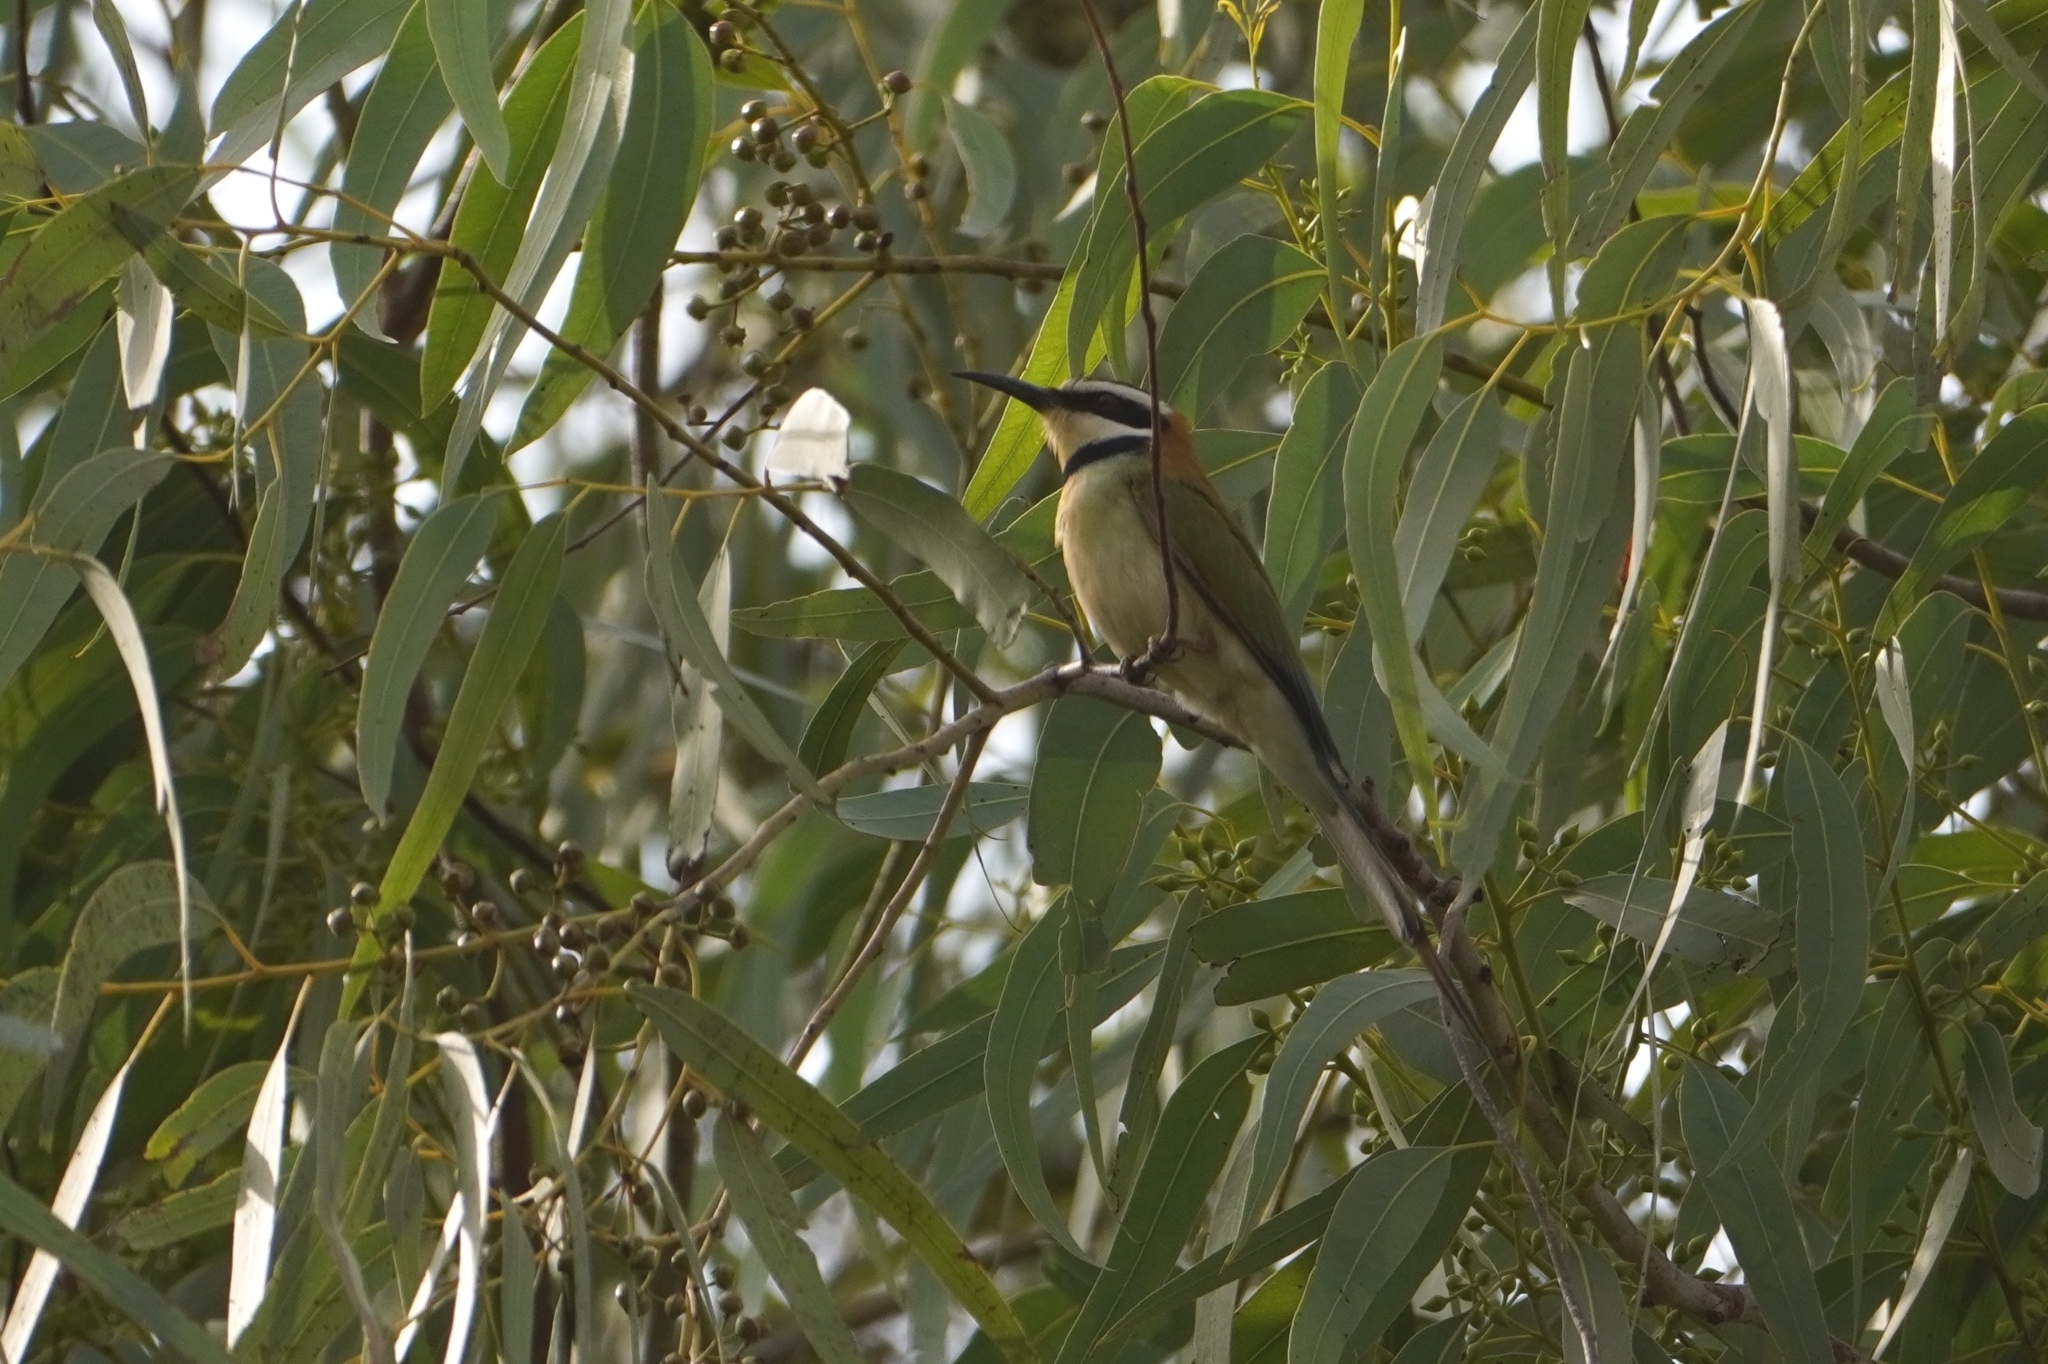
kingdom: Animalia
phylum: Chordata
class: Aves
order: Coraciiformes
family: Meropidae
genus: Merops
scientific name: Merops albicollis
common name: White-throated bee-eater
